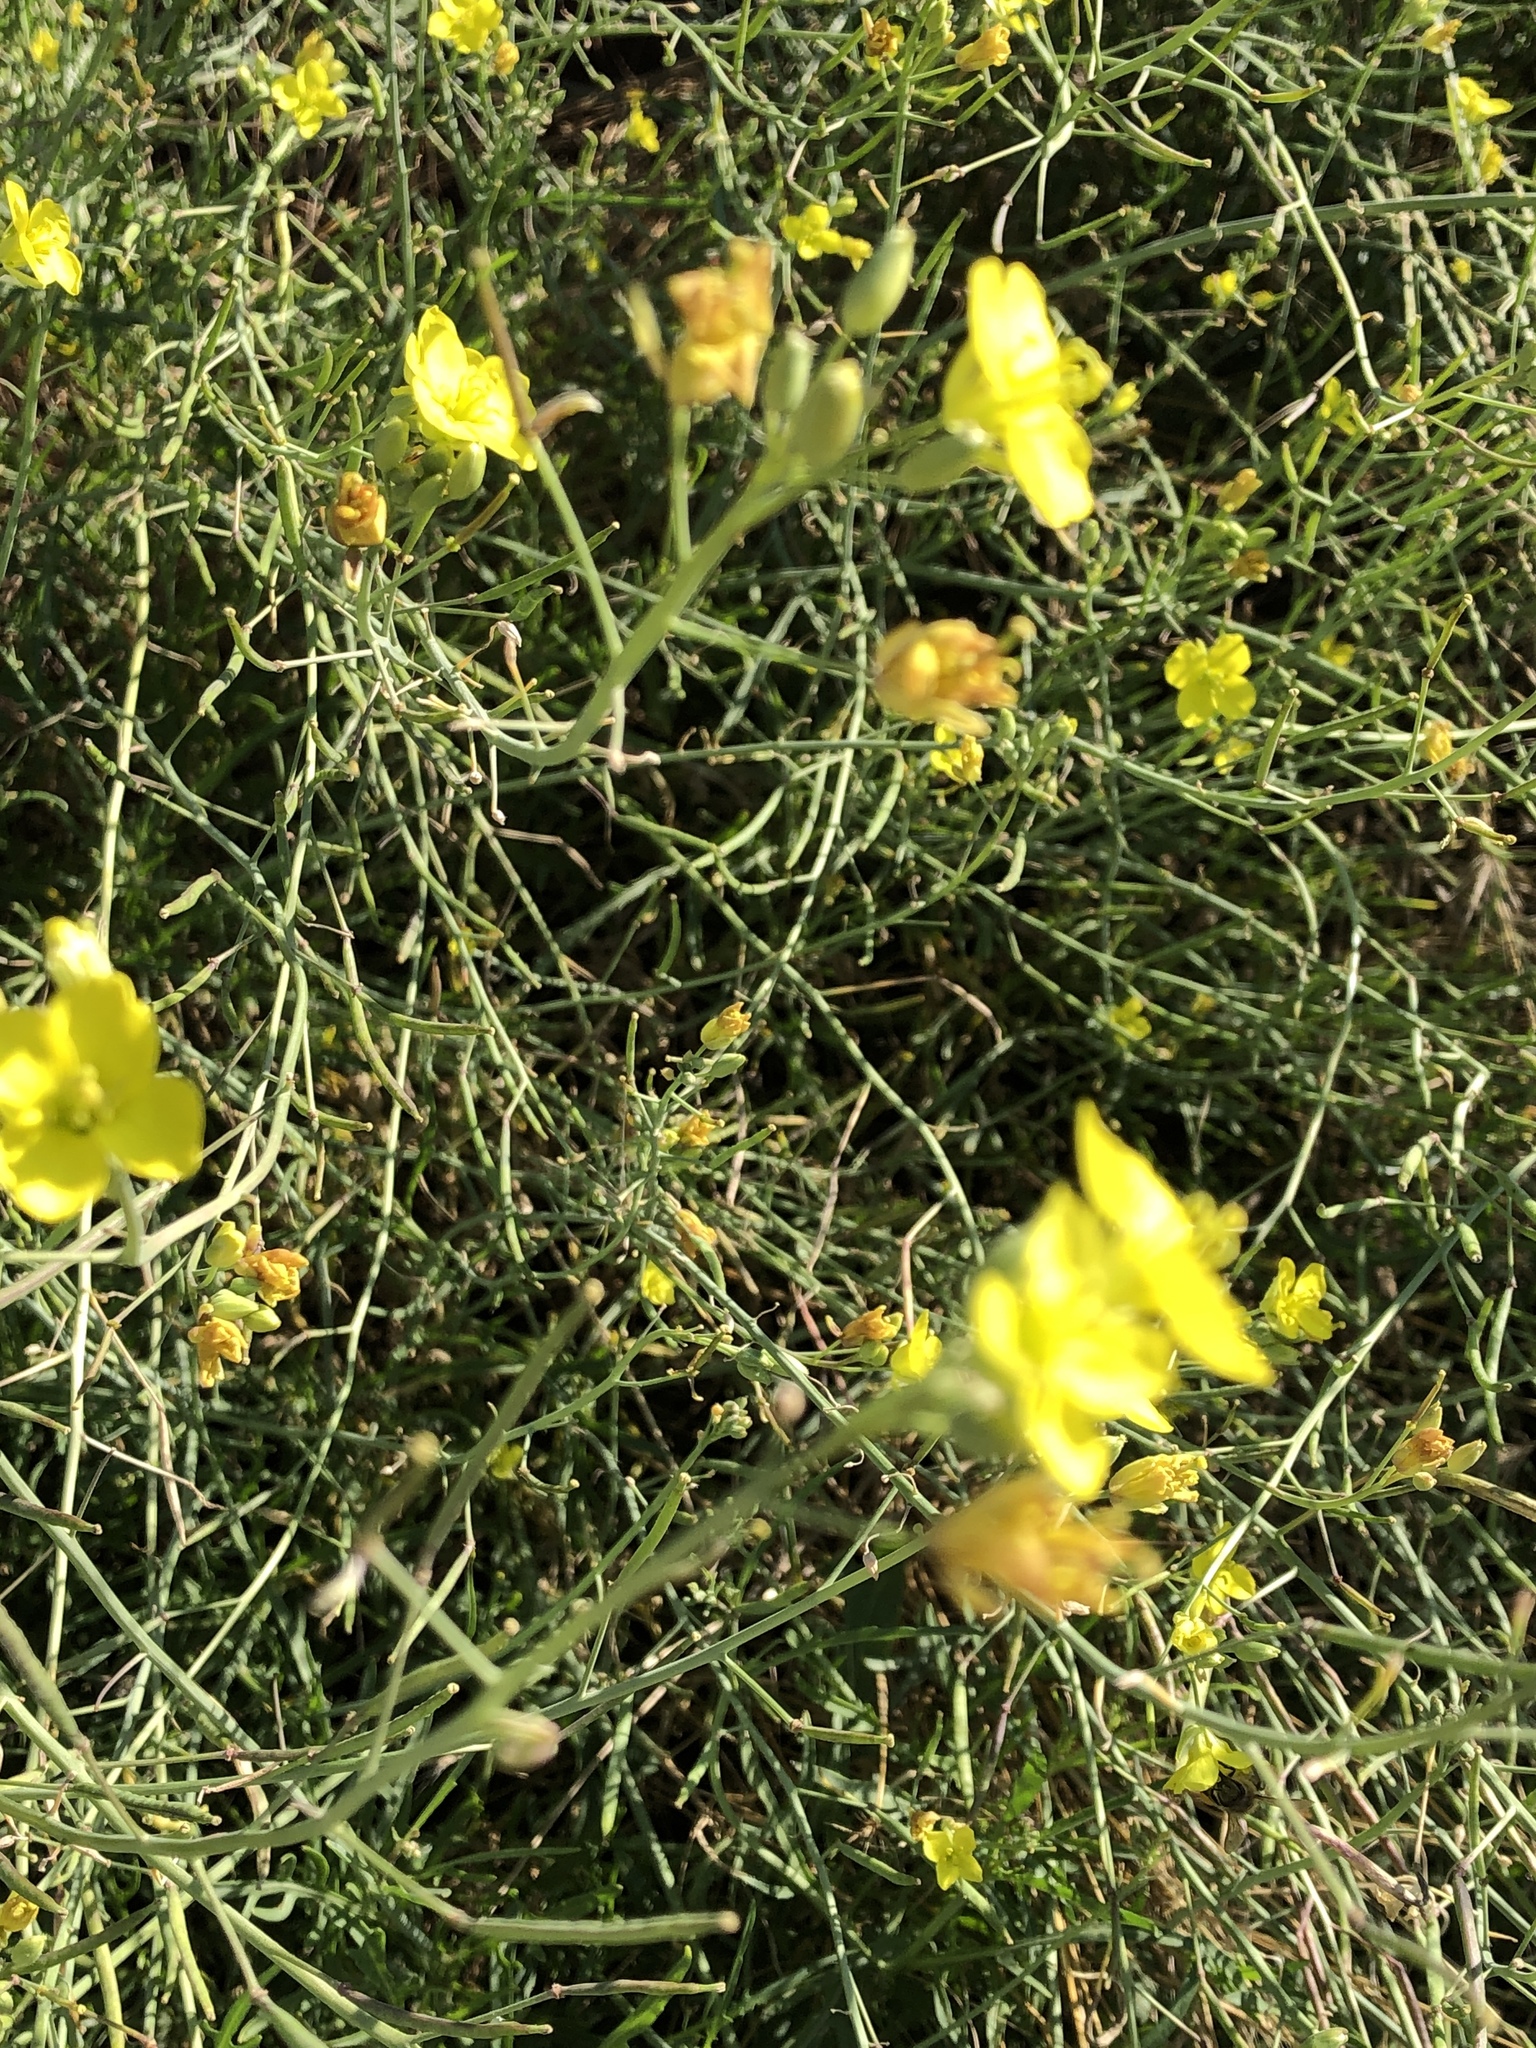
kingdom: Plantae
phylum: Tracheophyta
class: Magnoliopsida
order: Brassicales
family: Brassicaceae
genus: Diplotaxis
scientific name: Diplotaxis tenuifolia
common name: Perennial wall-rocket
